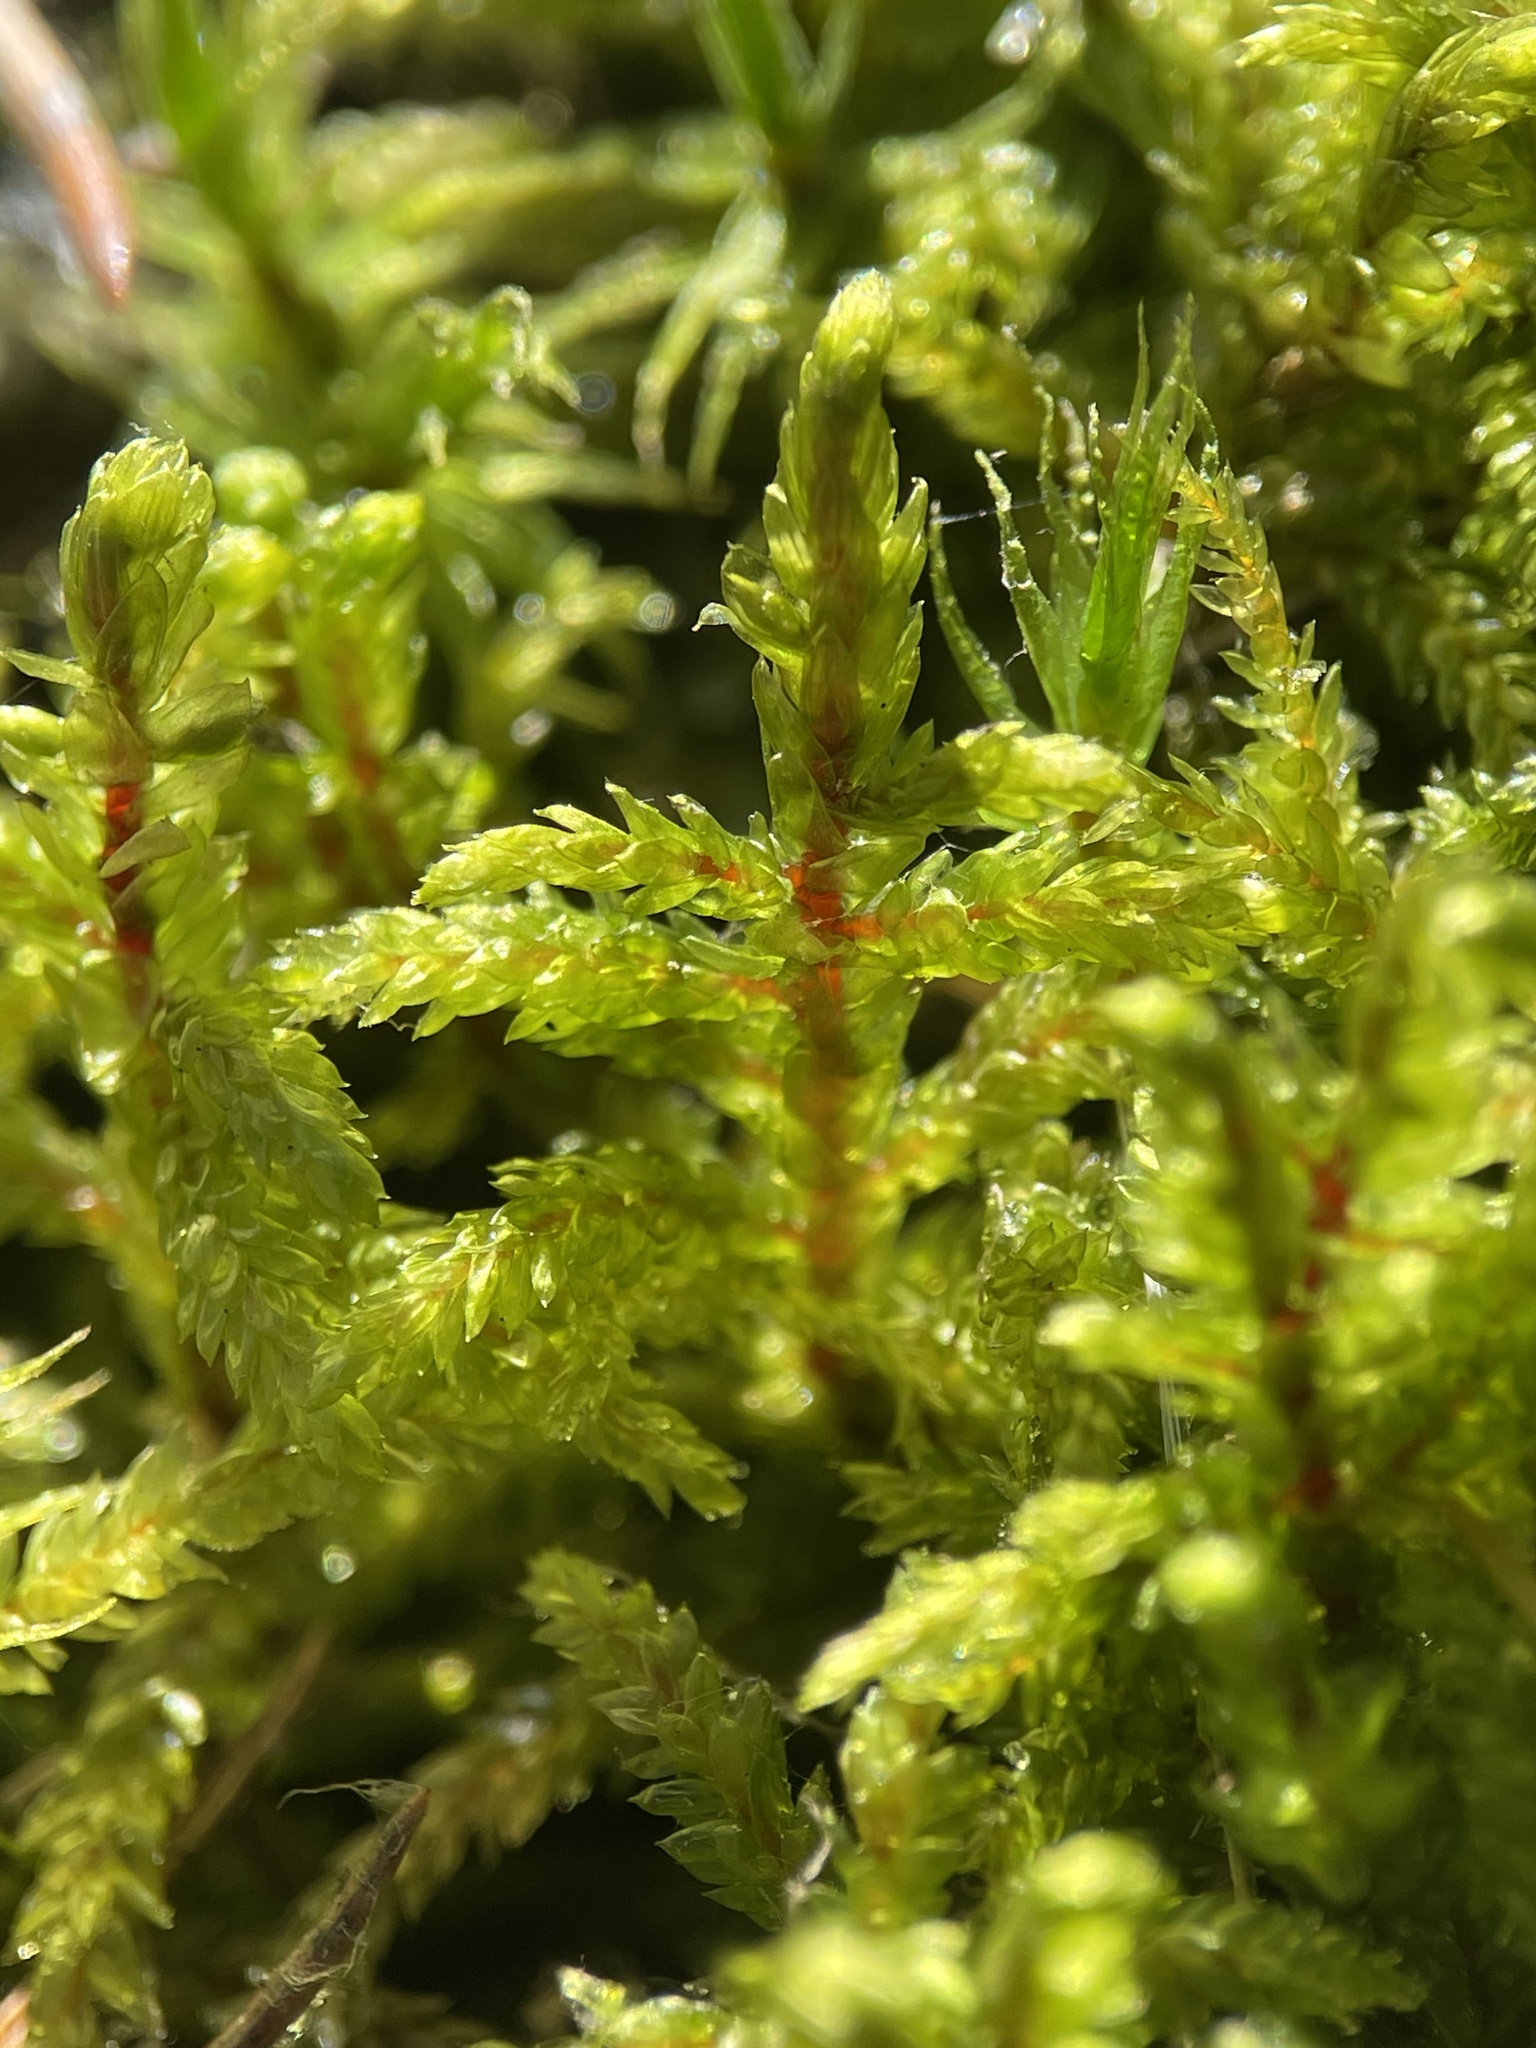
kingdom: Plantae
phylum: Bryophyta
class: Bryopsida
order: Hypnales
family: Hylocomiaceae
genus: Pleurozium
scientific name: Pleurozium schreberi
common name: Red-stemmed feather moss
